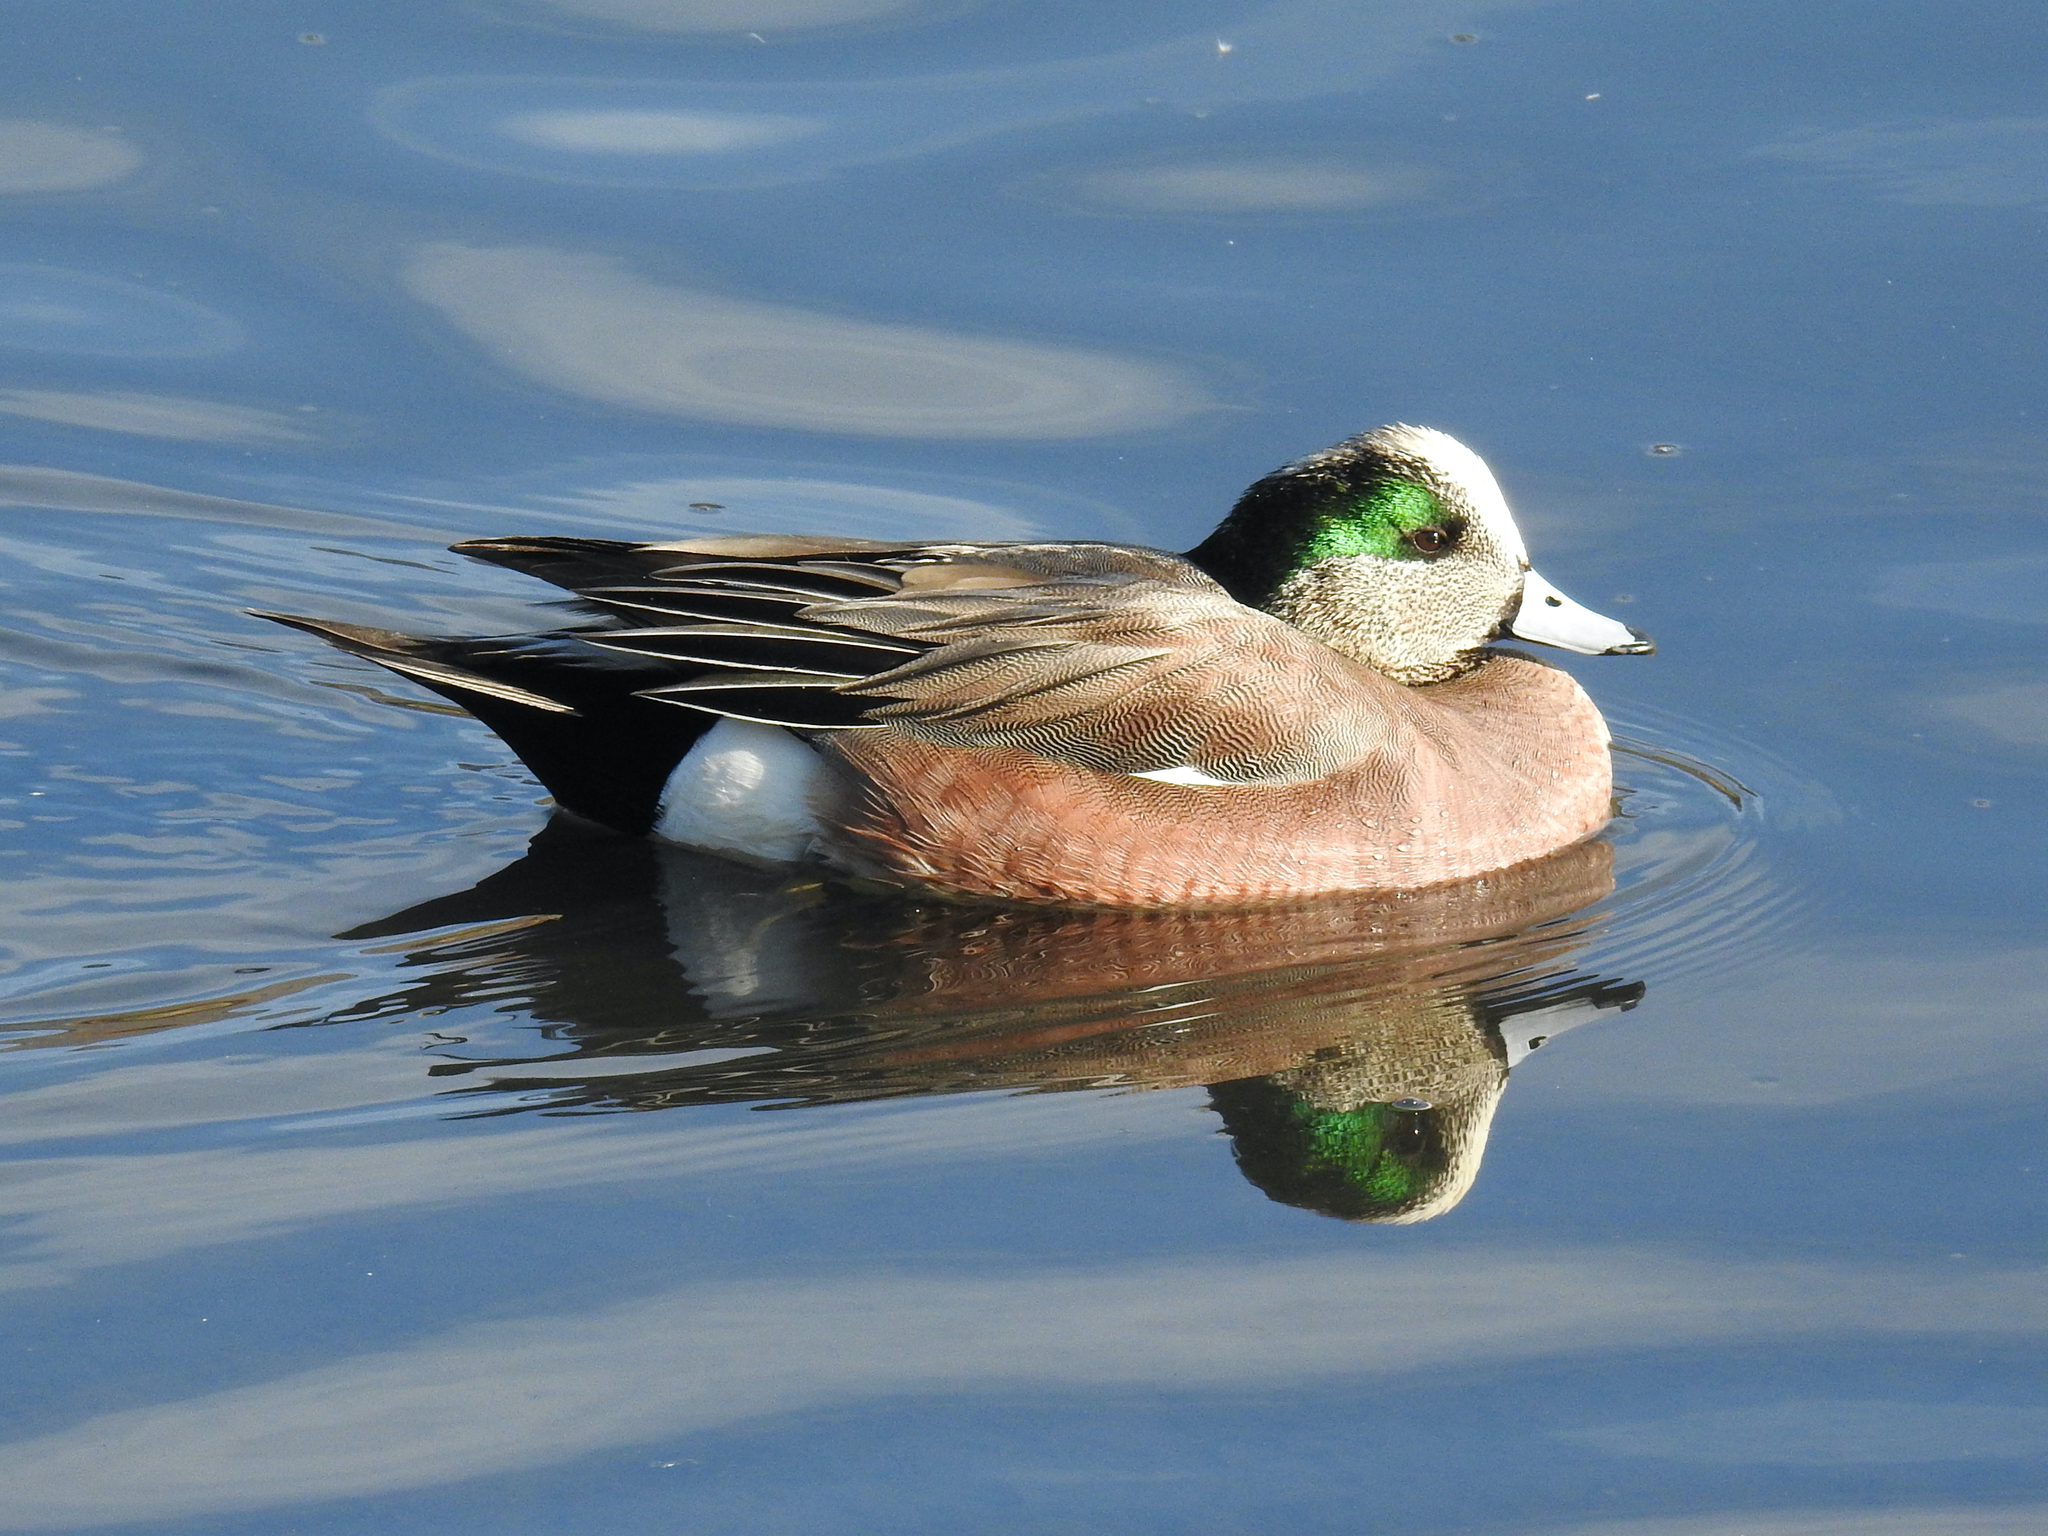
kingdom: Animalia
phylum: Chordata
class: Aves
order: Anseriformes
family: Anatidae
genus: Mareca
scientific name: Mareca americana
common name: American wigeon
